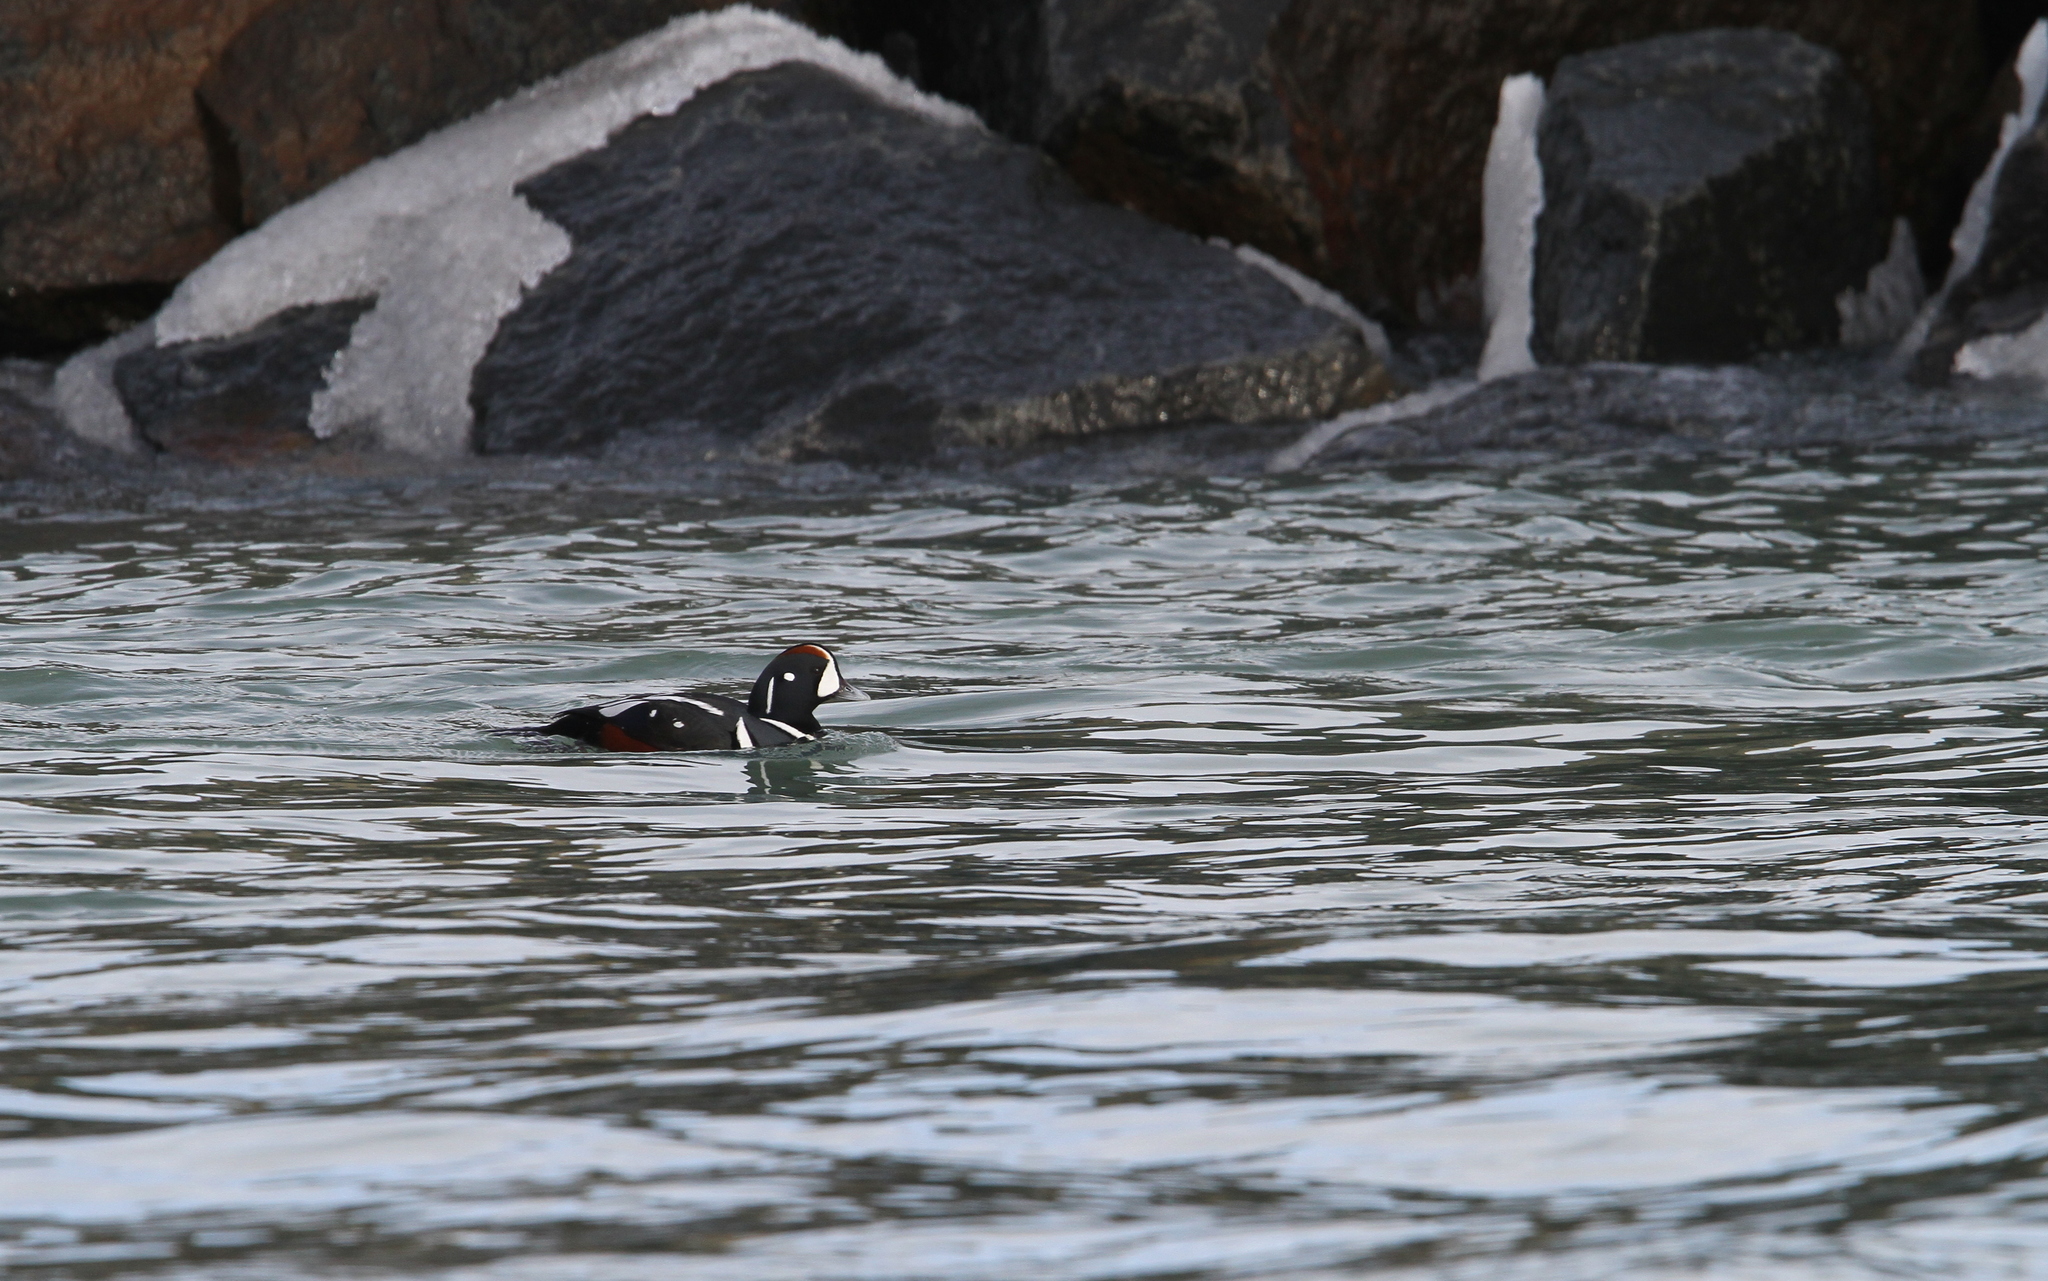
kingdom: Animalia
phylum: Chordata
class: Aves
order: Anseriformes
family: Anatidae
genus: Histrionicus
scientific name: Histrionicus histrionicus
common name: Harlequin duck
